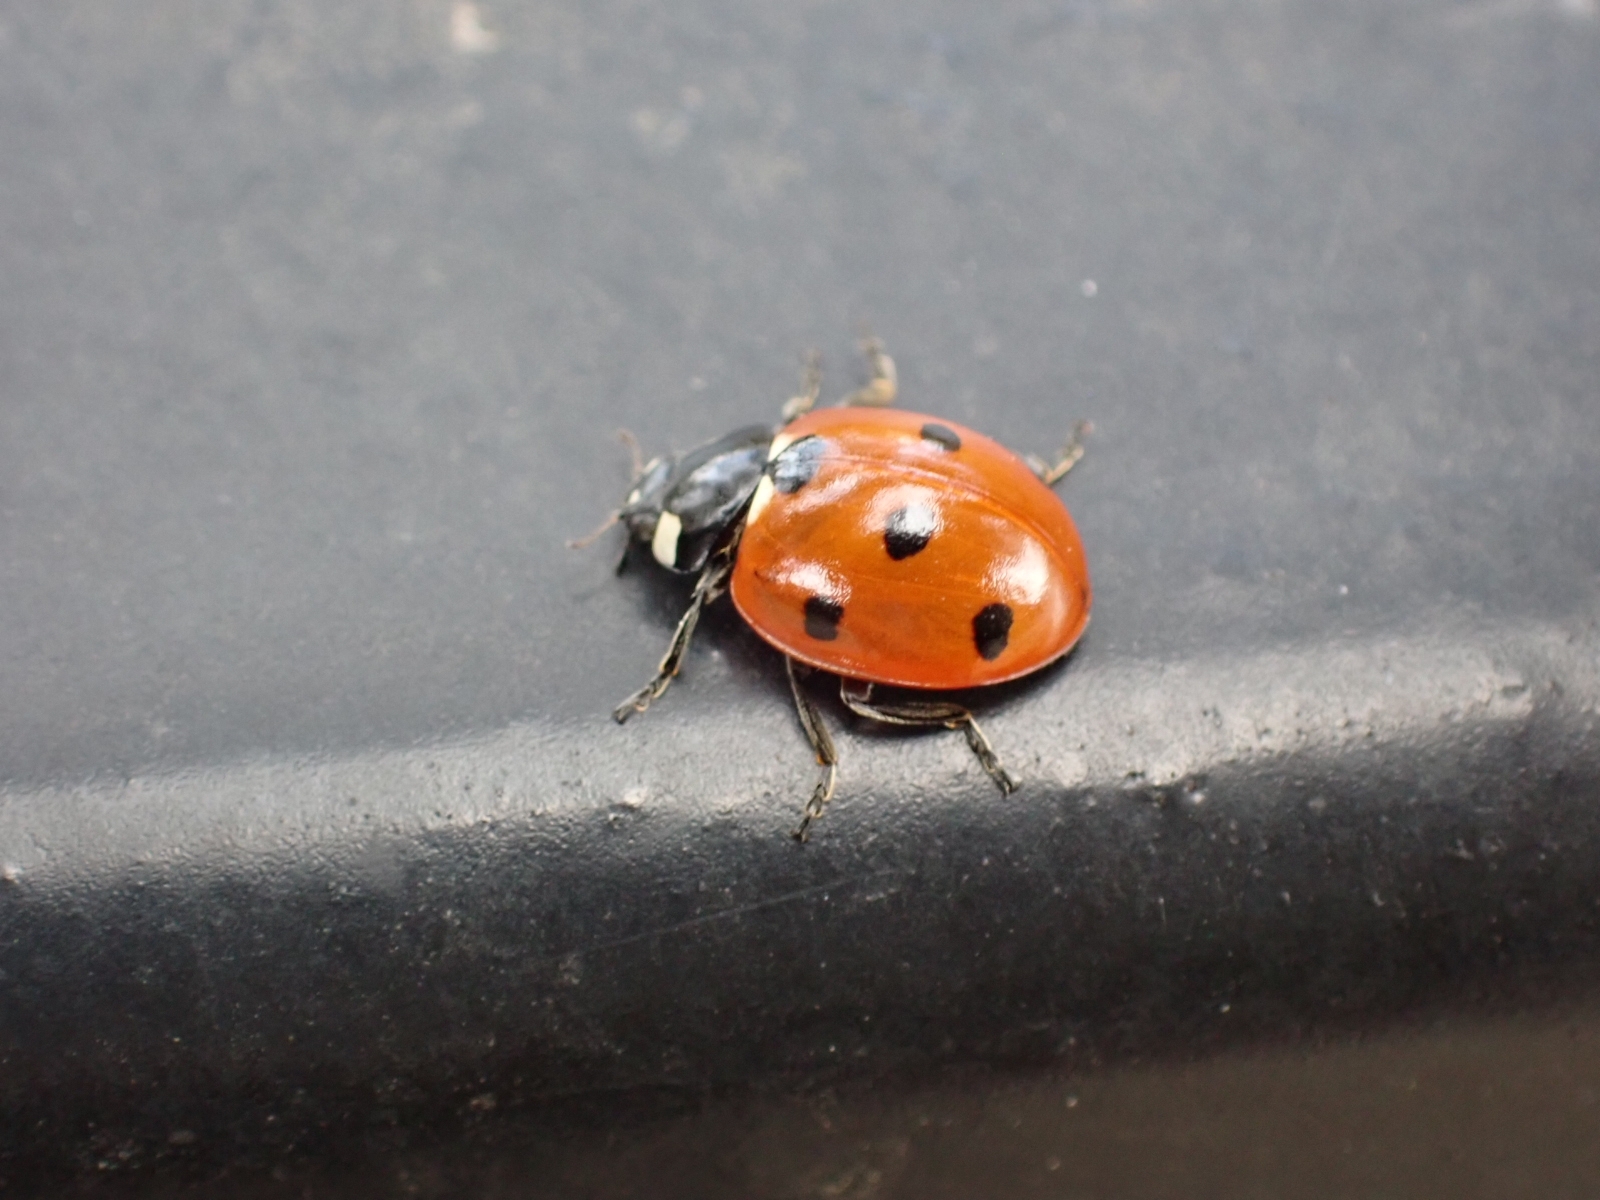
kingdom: Animalia
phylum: Arthropoda
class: Insecta
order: Coleoptera
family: Coccinellidae
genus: Coccinella
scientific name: Coccinella septempunctata
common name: Sevenspotted lady beetle
